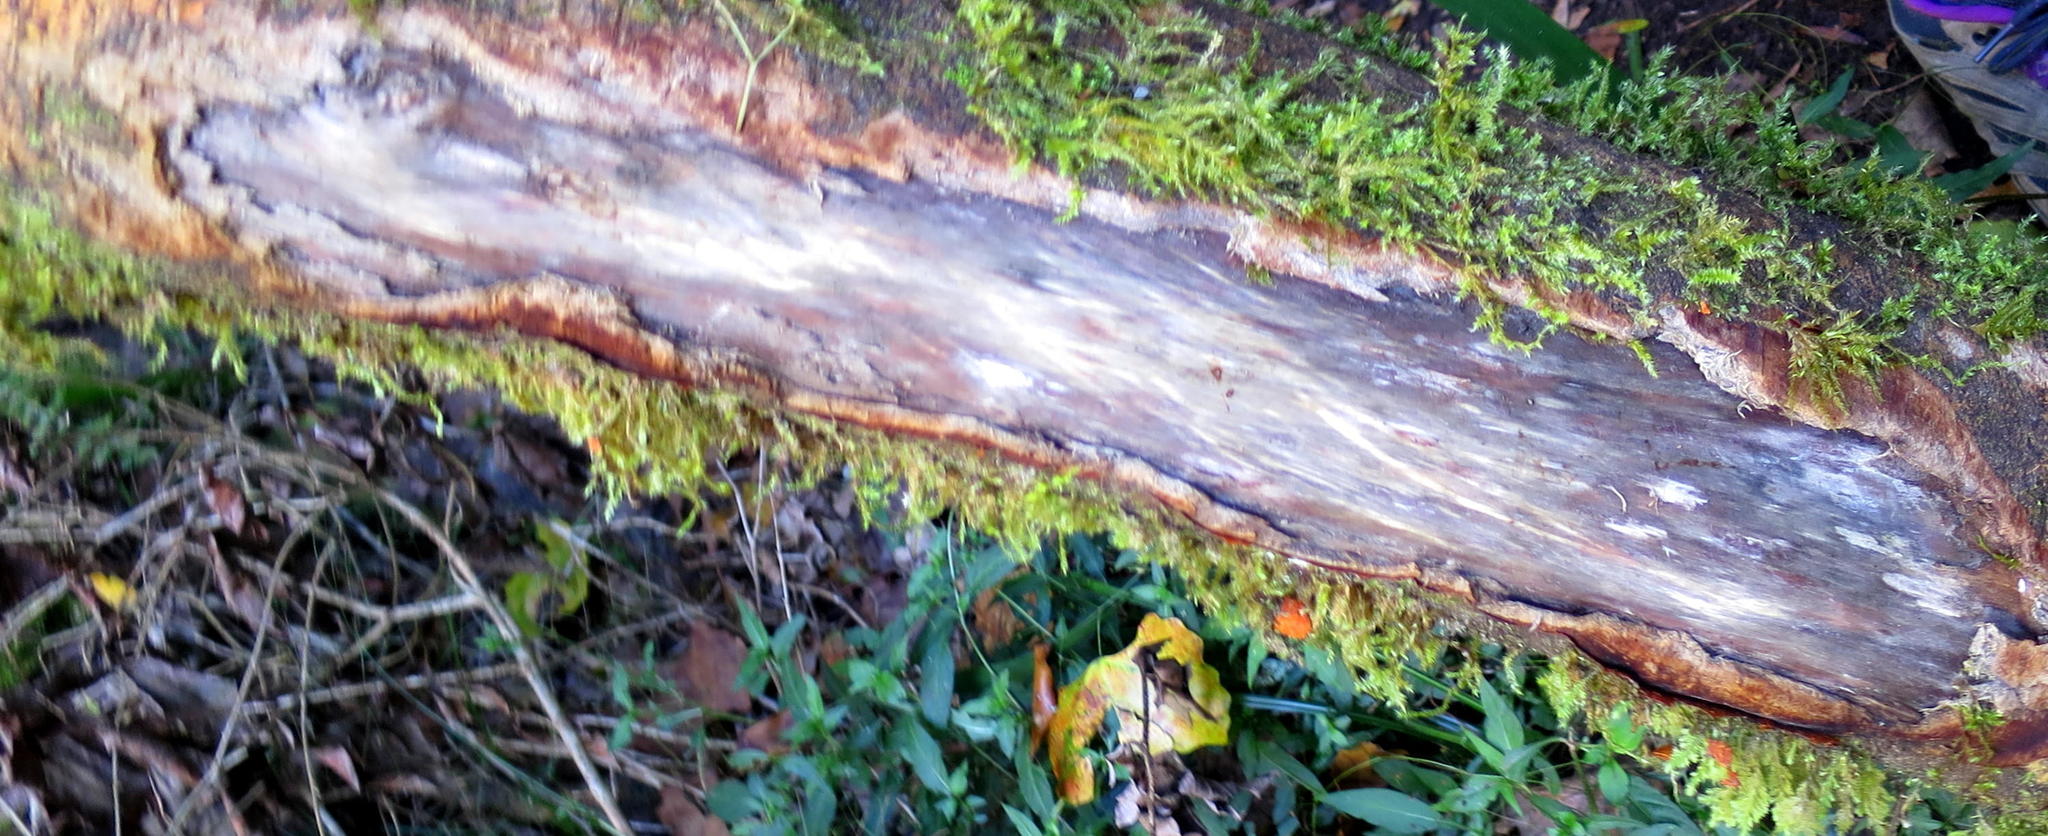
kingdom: Plantae
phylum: Tracheophyta
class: Magnoliopsida
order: Celastrales
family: Celastraceae
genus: Elaeodendron
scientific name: Elaeodendron croceum
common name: Saffron
